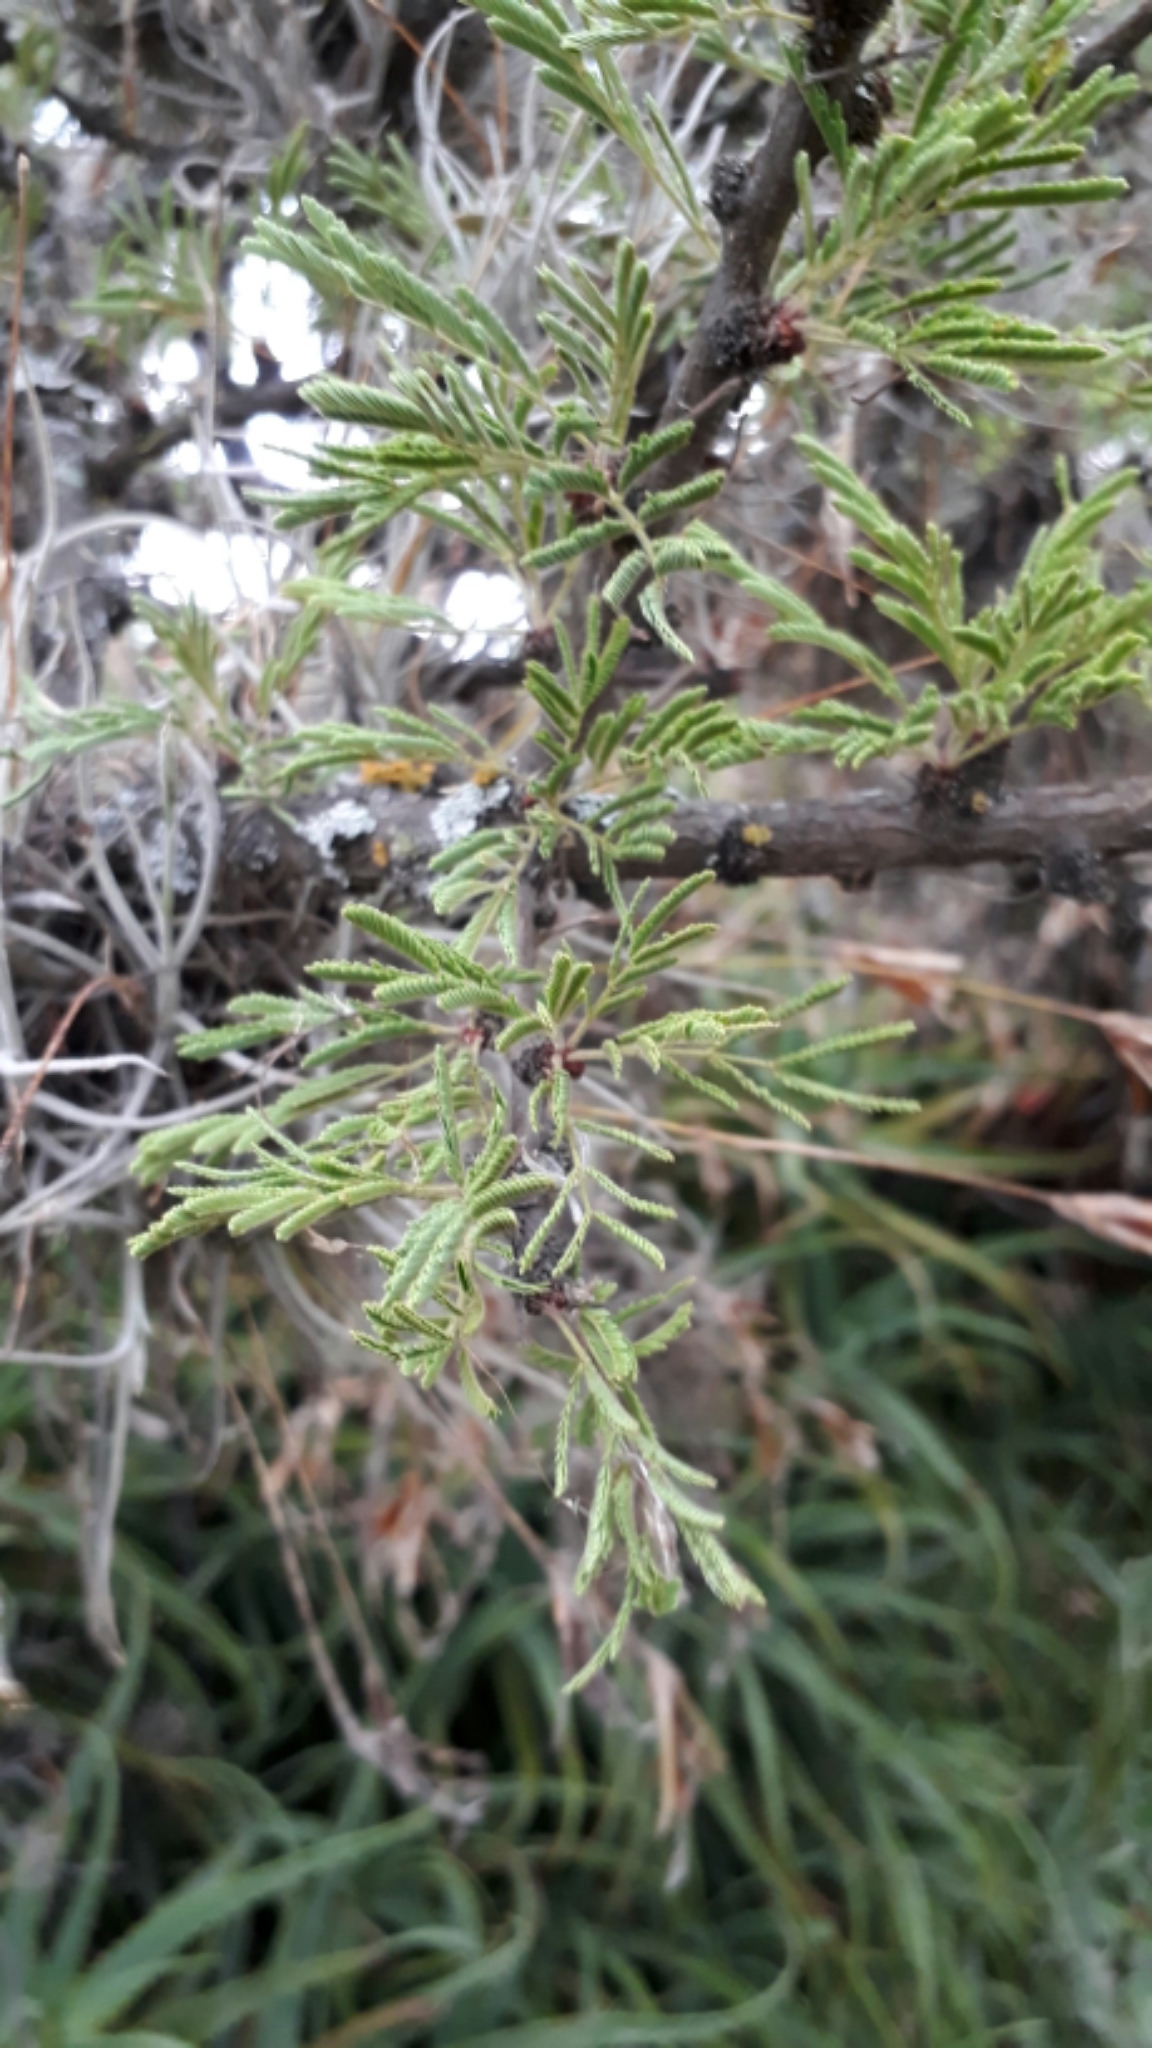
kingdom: Plantae
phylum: Tracheophyta
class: Magnoliopsida
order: Fabales
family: Fabaceae
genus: Vachellia
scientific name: Vachellia schaffneri
